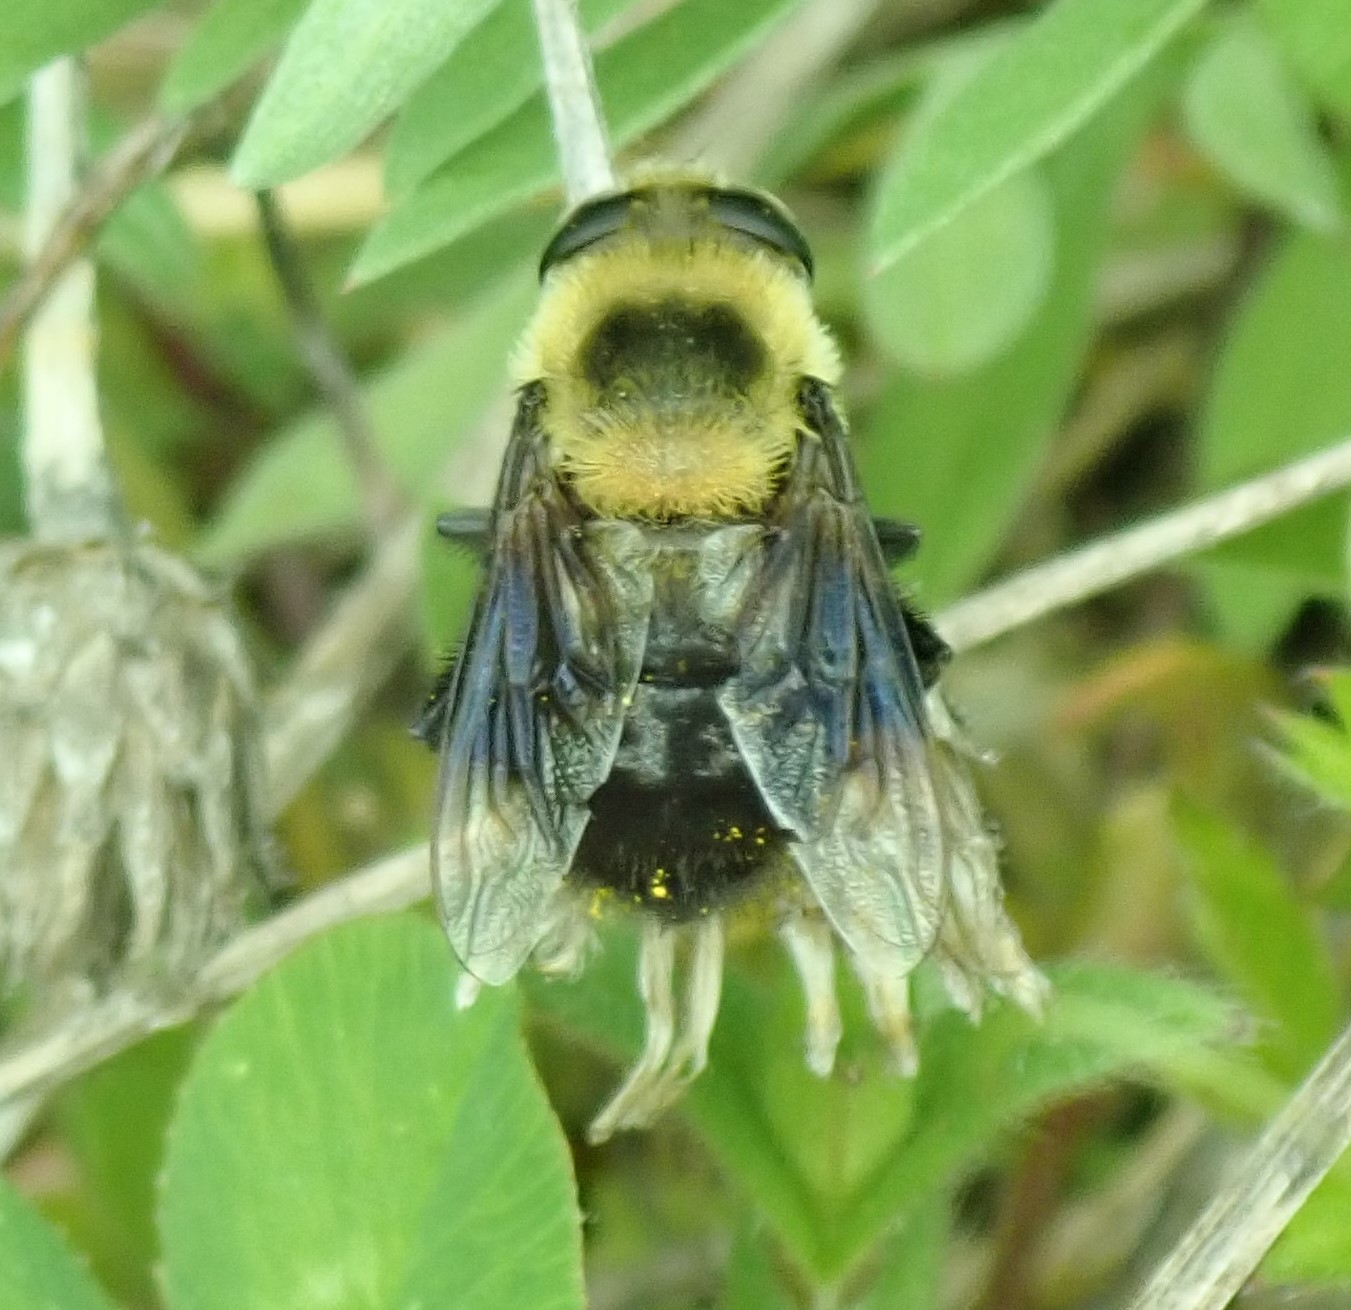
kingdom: Animalia
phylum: Arthropoda
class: Insecta
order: Diptera
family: Syrphidae
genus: Eristalis
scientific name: Eristalis flavipes
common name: Orange-legged drone fly
